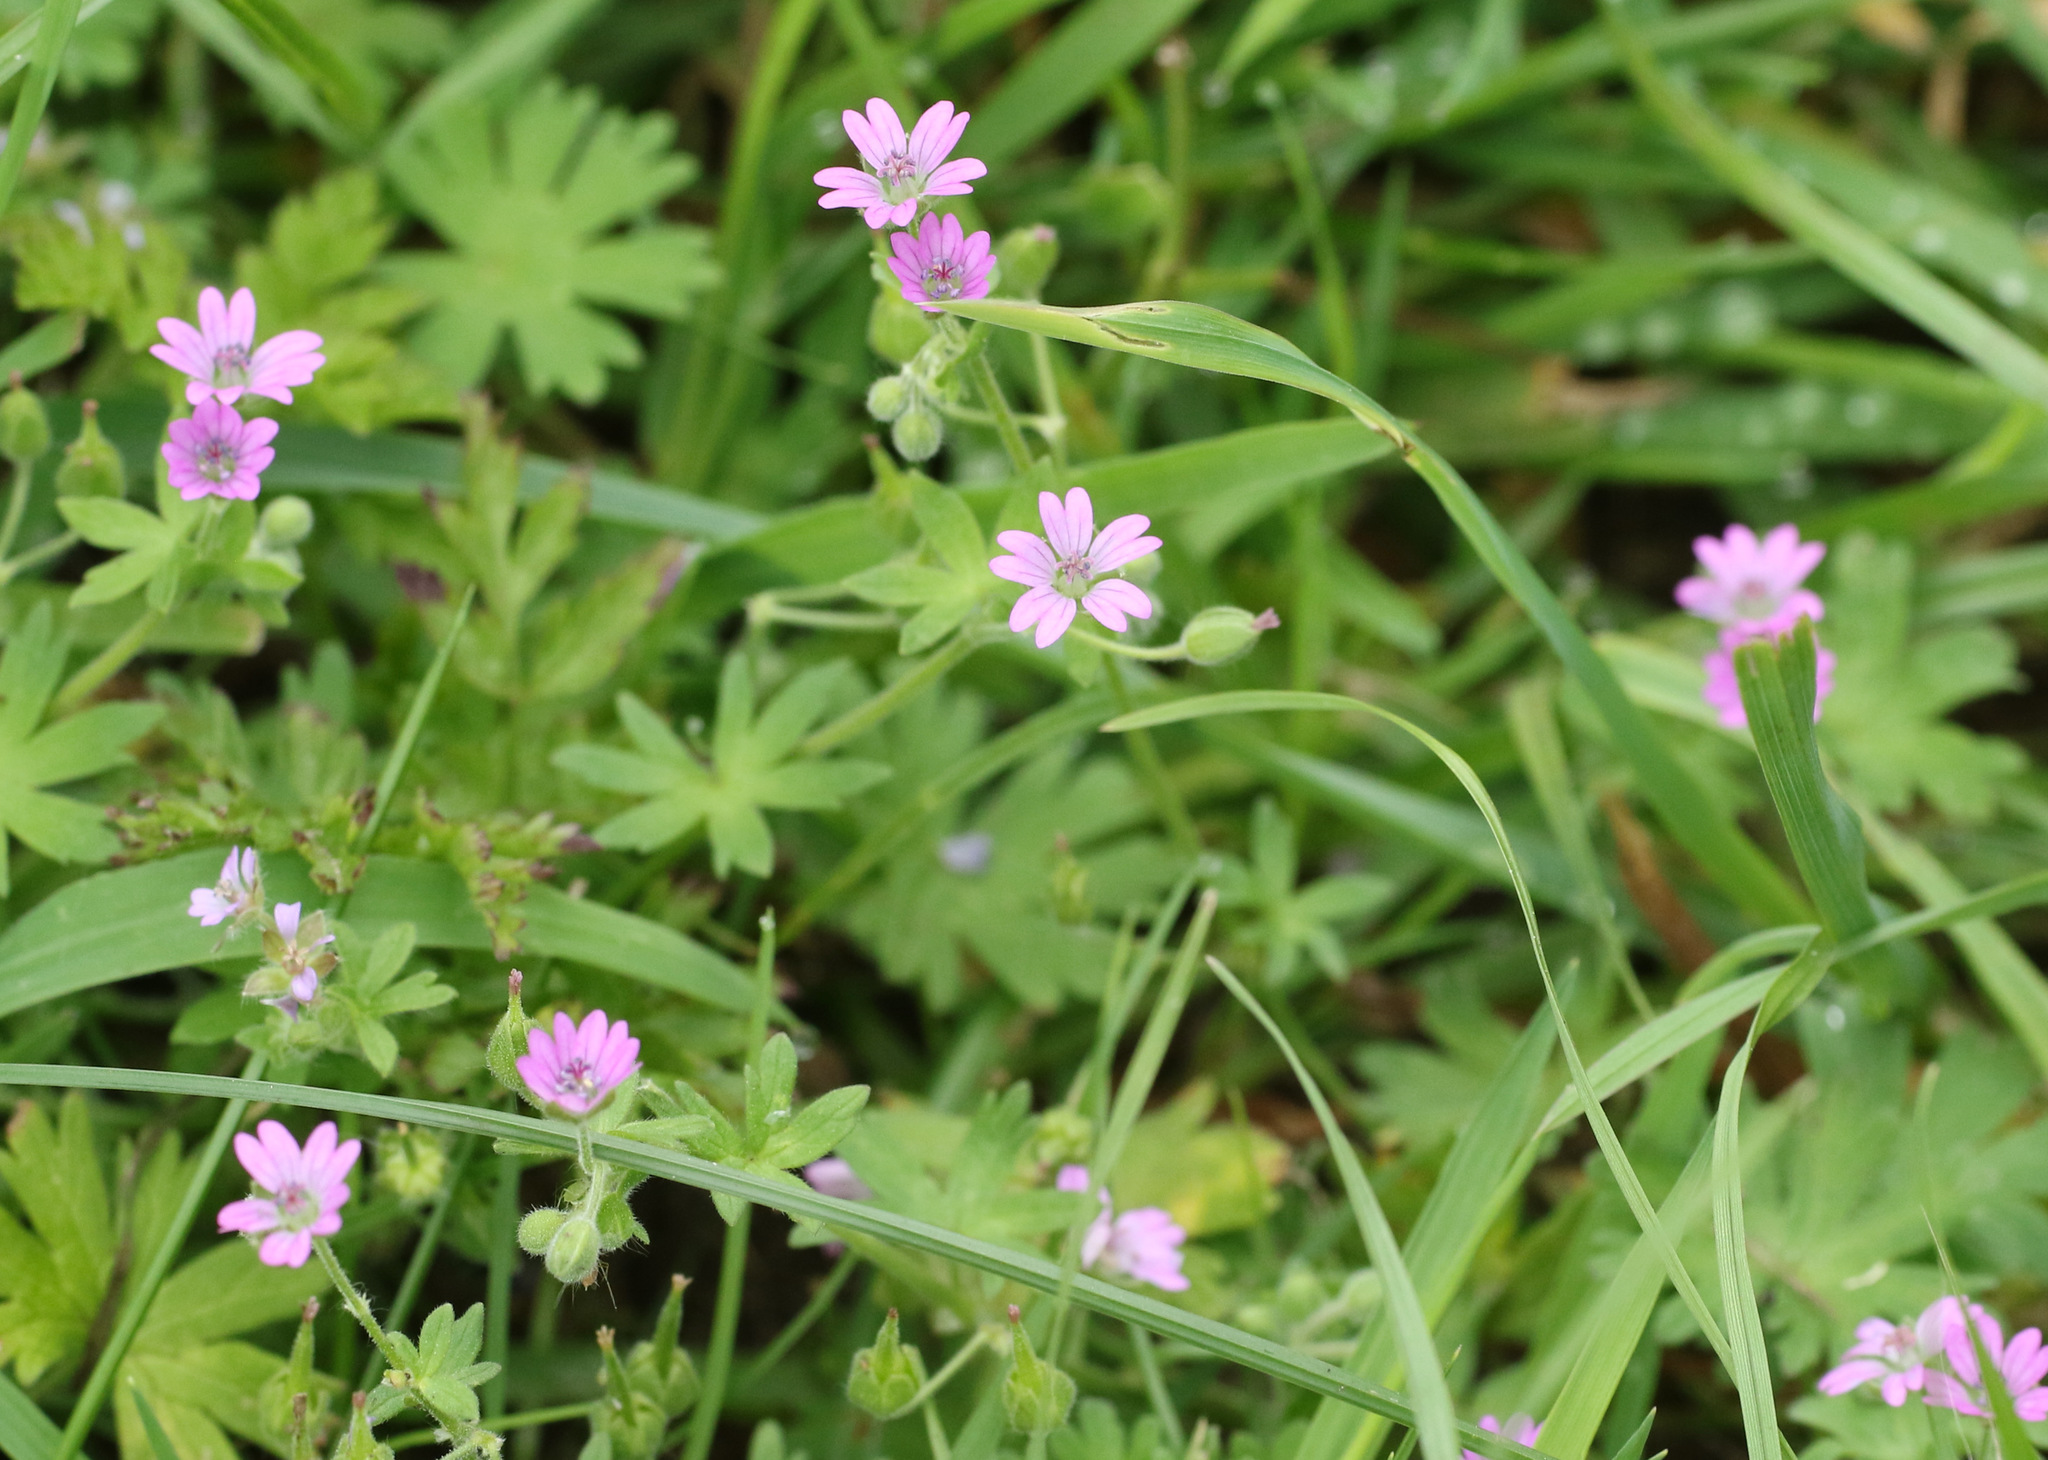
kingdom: Plantae
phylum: Tracheophyta
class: Magnoliopsida
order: Geraniales
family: Geraniaceae
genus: Geranium
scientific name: Geranium molle
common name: Dove's-foot crane's-bill
